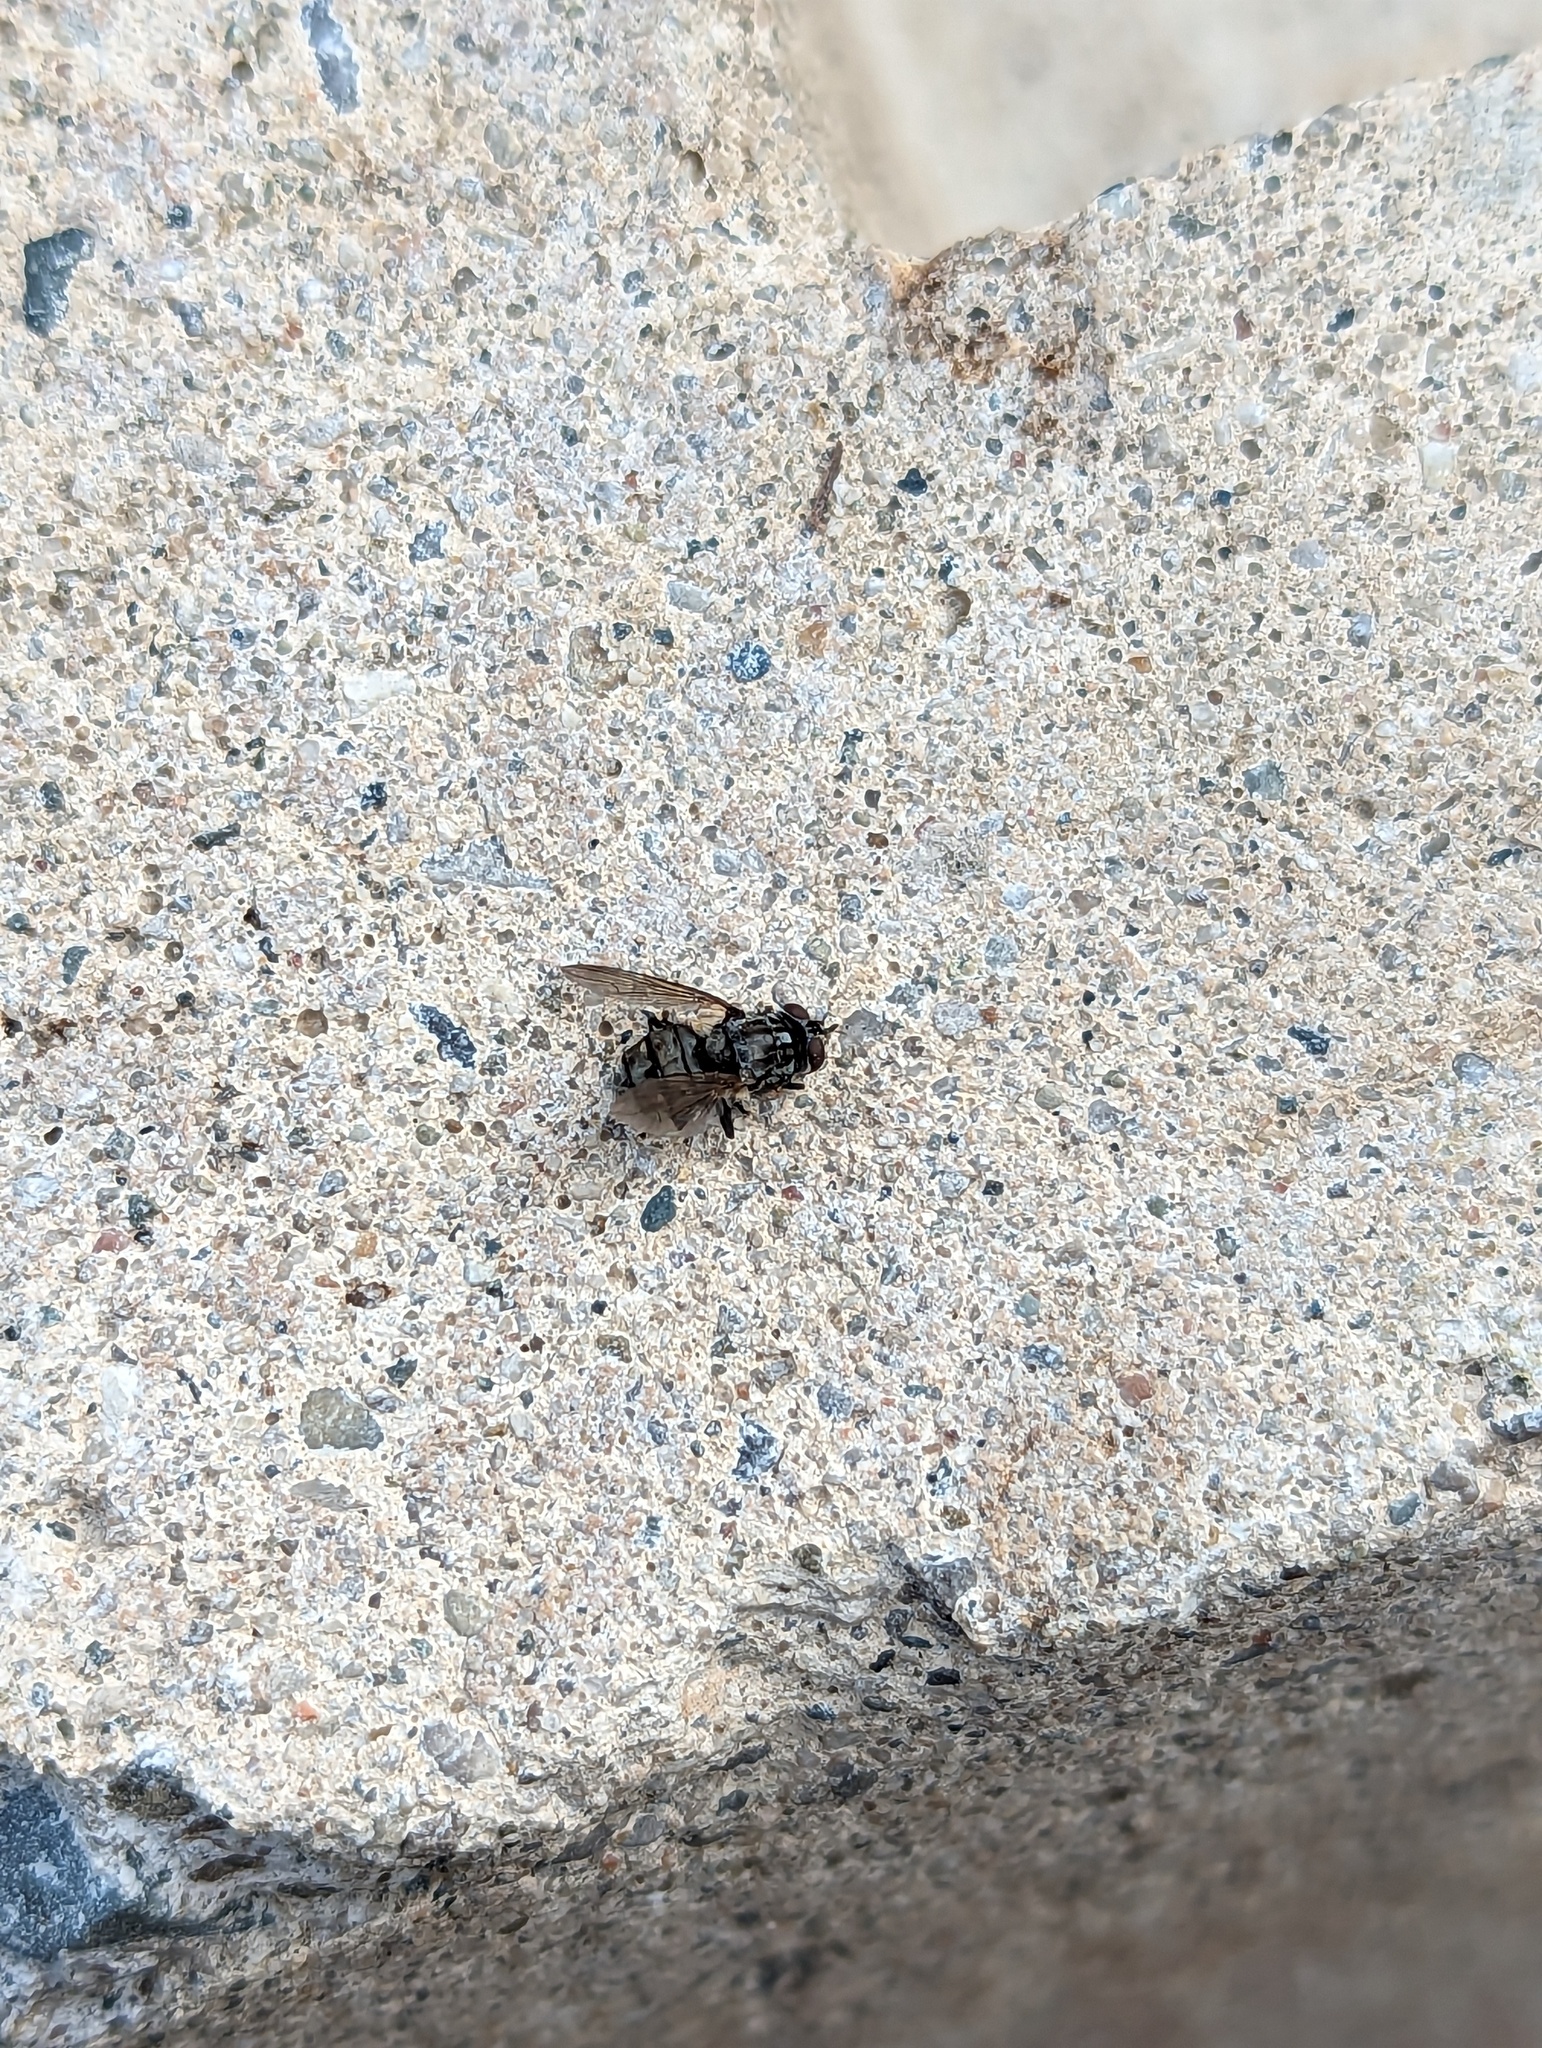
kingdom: Animalia
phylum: Arthropoda
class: Insecta
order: Diptera
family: Muscidae
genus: Stomoxys
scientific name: Stomoxys calcitrans
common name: Stable fly
